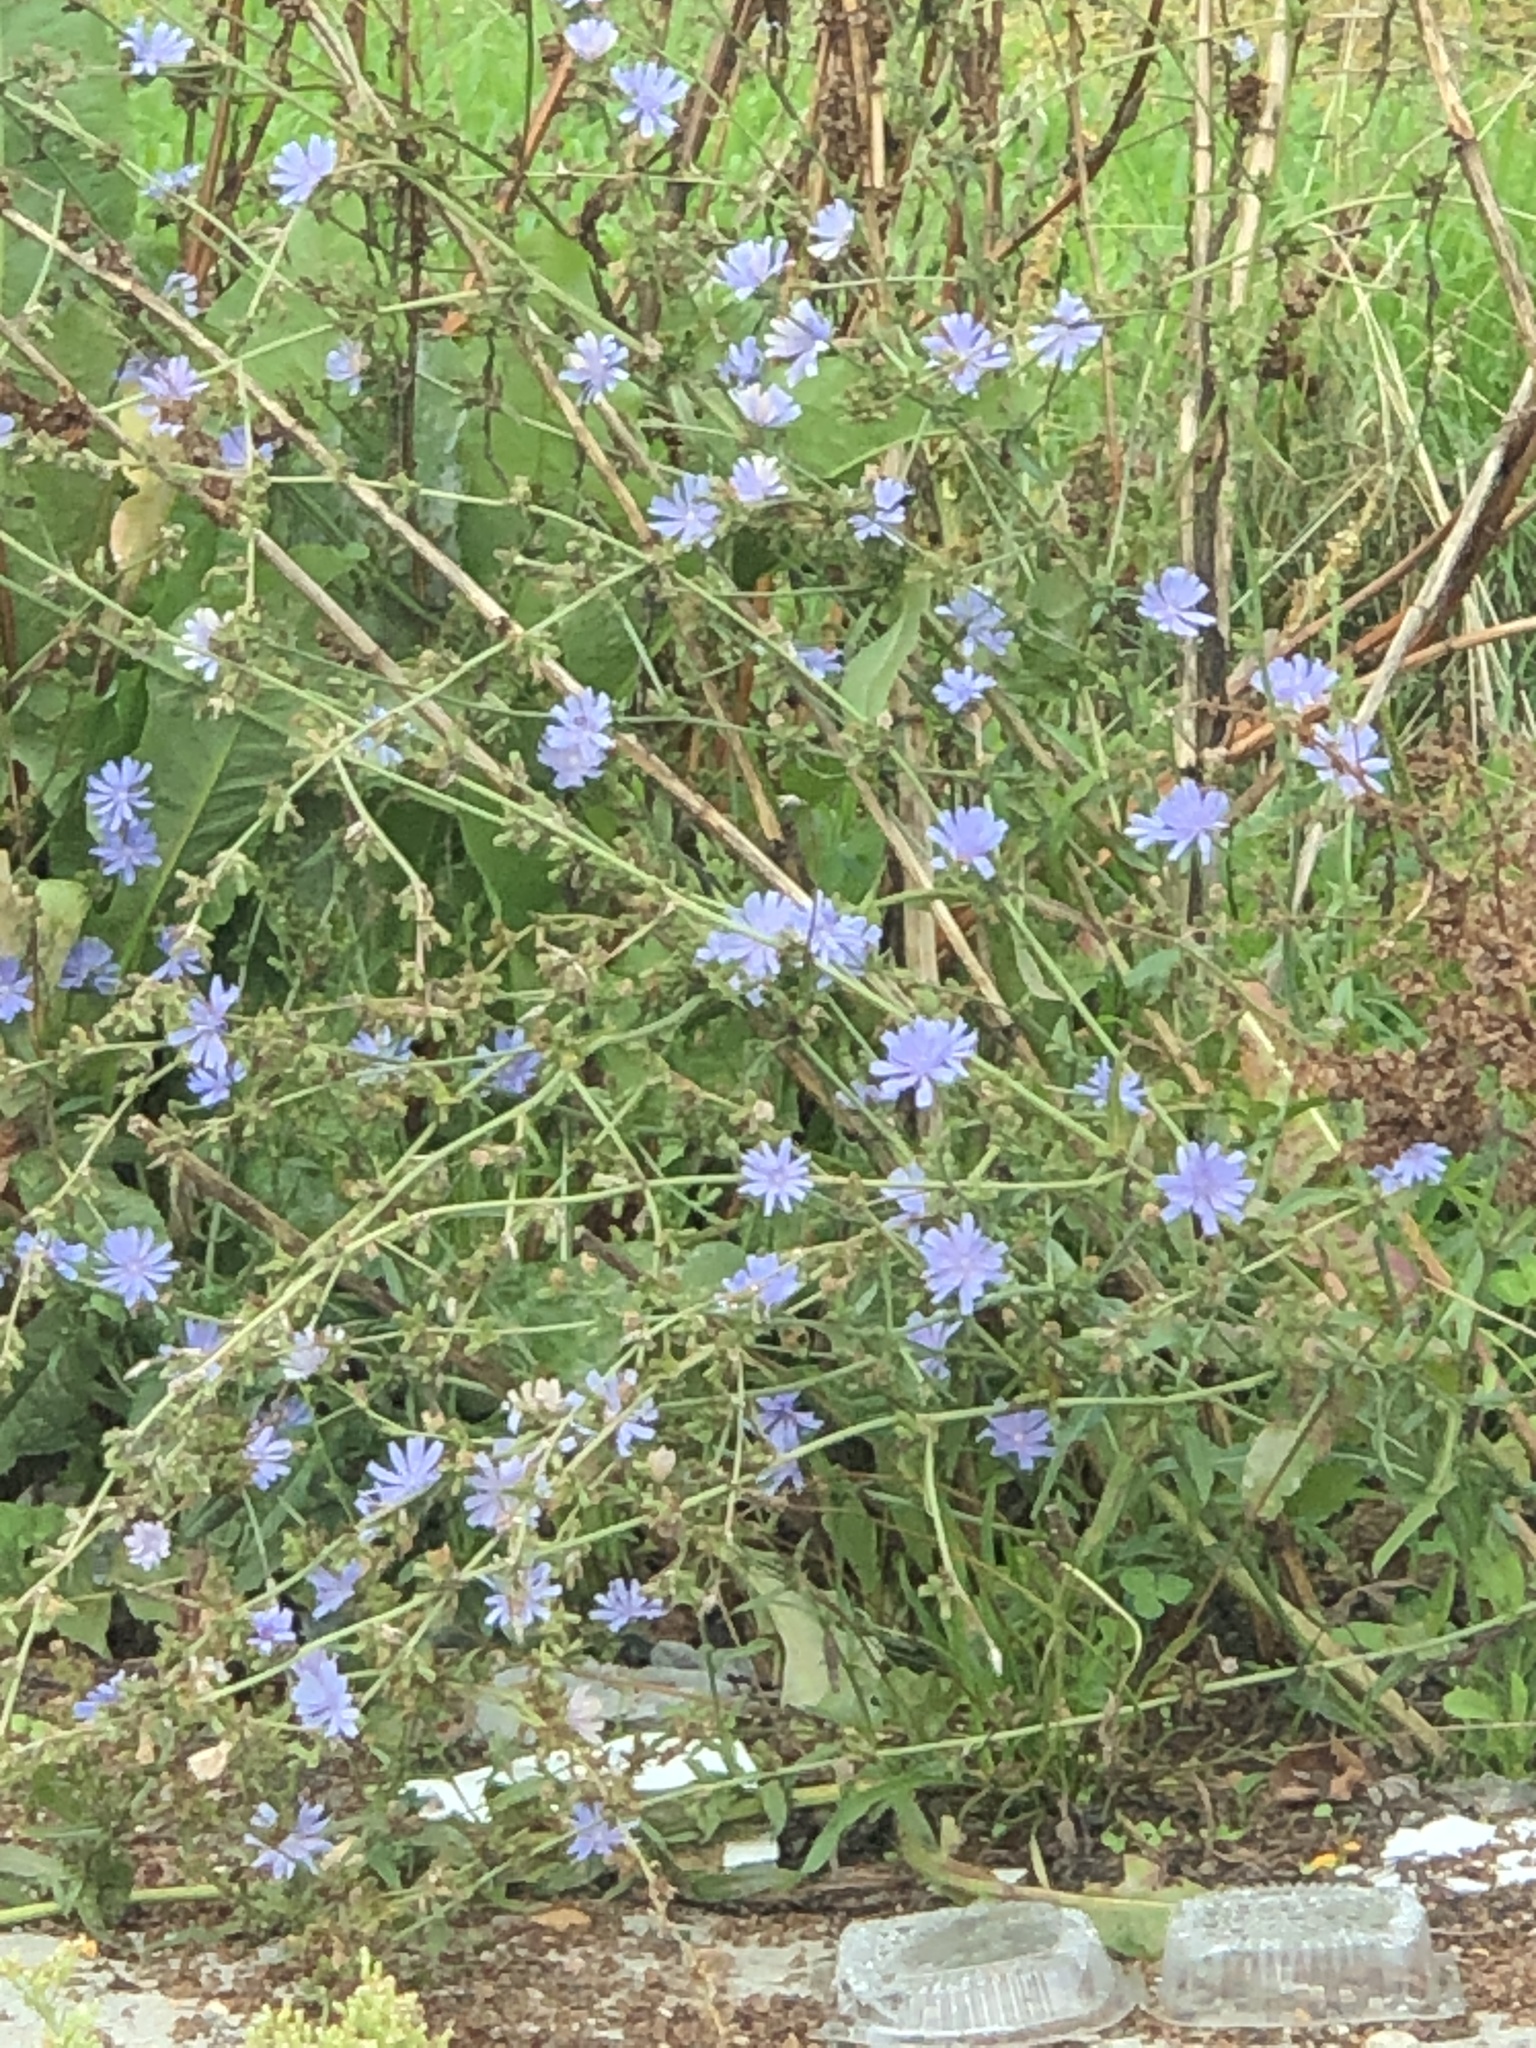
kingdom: Plantae
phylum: Tracheophyta
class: Magnoliopsida
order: Asterales
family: Asteraceae
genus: Cichorium
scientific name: Cichorium intybus
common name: Chicory
